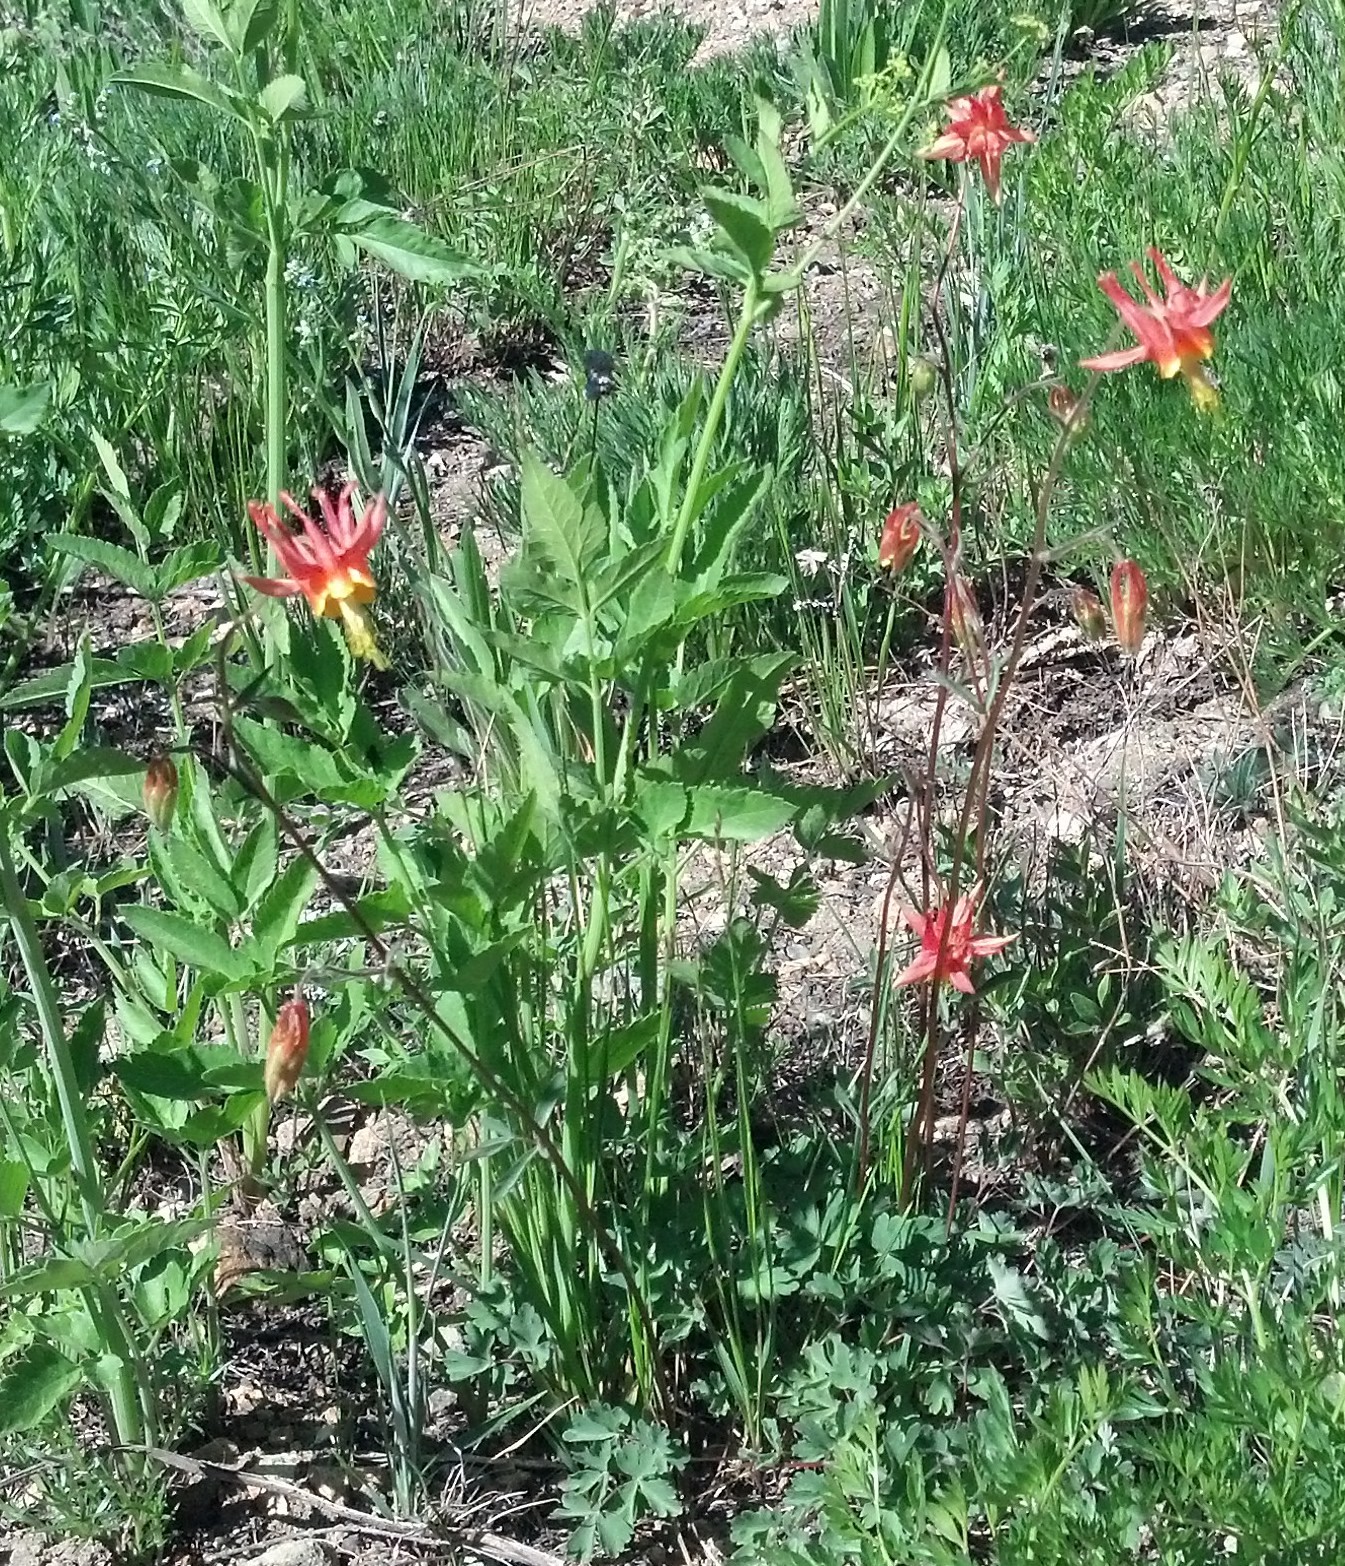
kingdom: Plantae
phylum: Tracheophyta
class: Magnoliopsida
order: Ranunculales
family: Ranunculaceae
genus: Aquilegia
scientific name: Aquilegia formosa
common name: Sitka columbine
